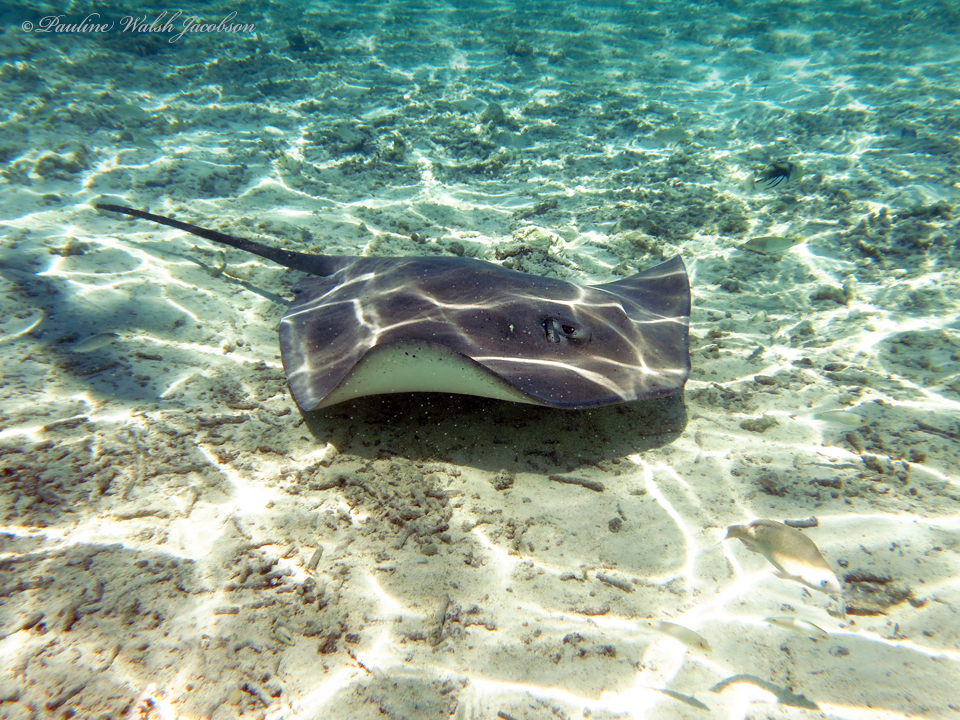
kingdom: Animalia
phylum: Chordata
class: Elasmobranchii
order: Myliobatiformes
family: Dasyatidae
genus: Pateobatis
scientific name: Pateobatis fai
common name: Pink whipray
